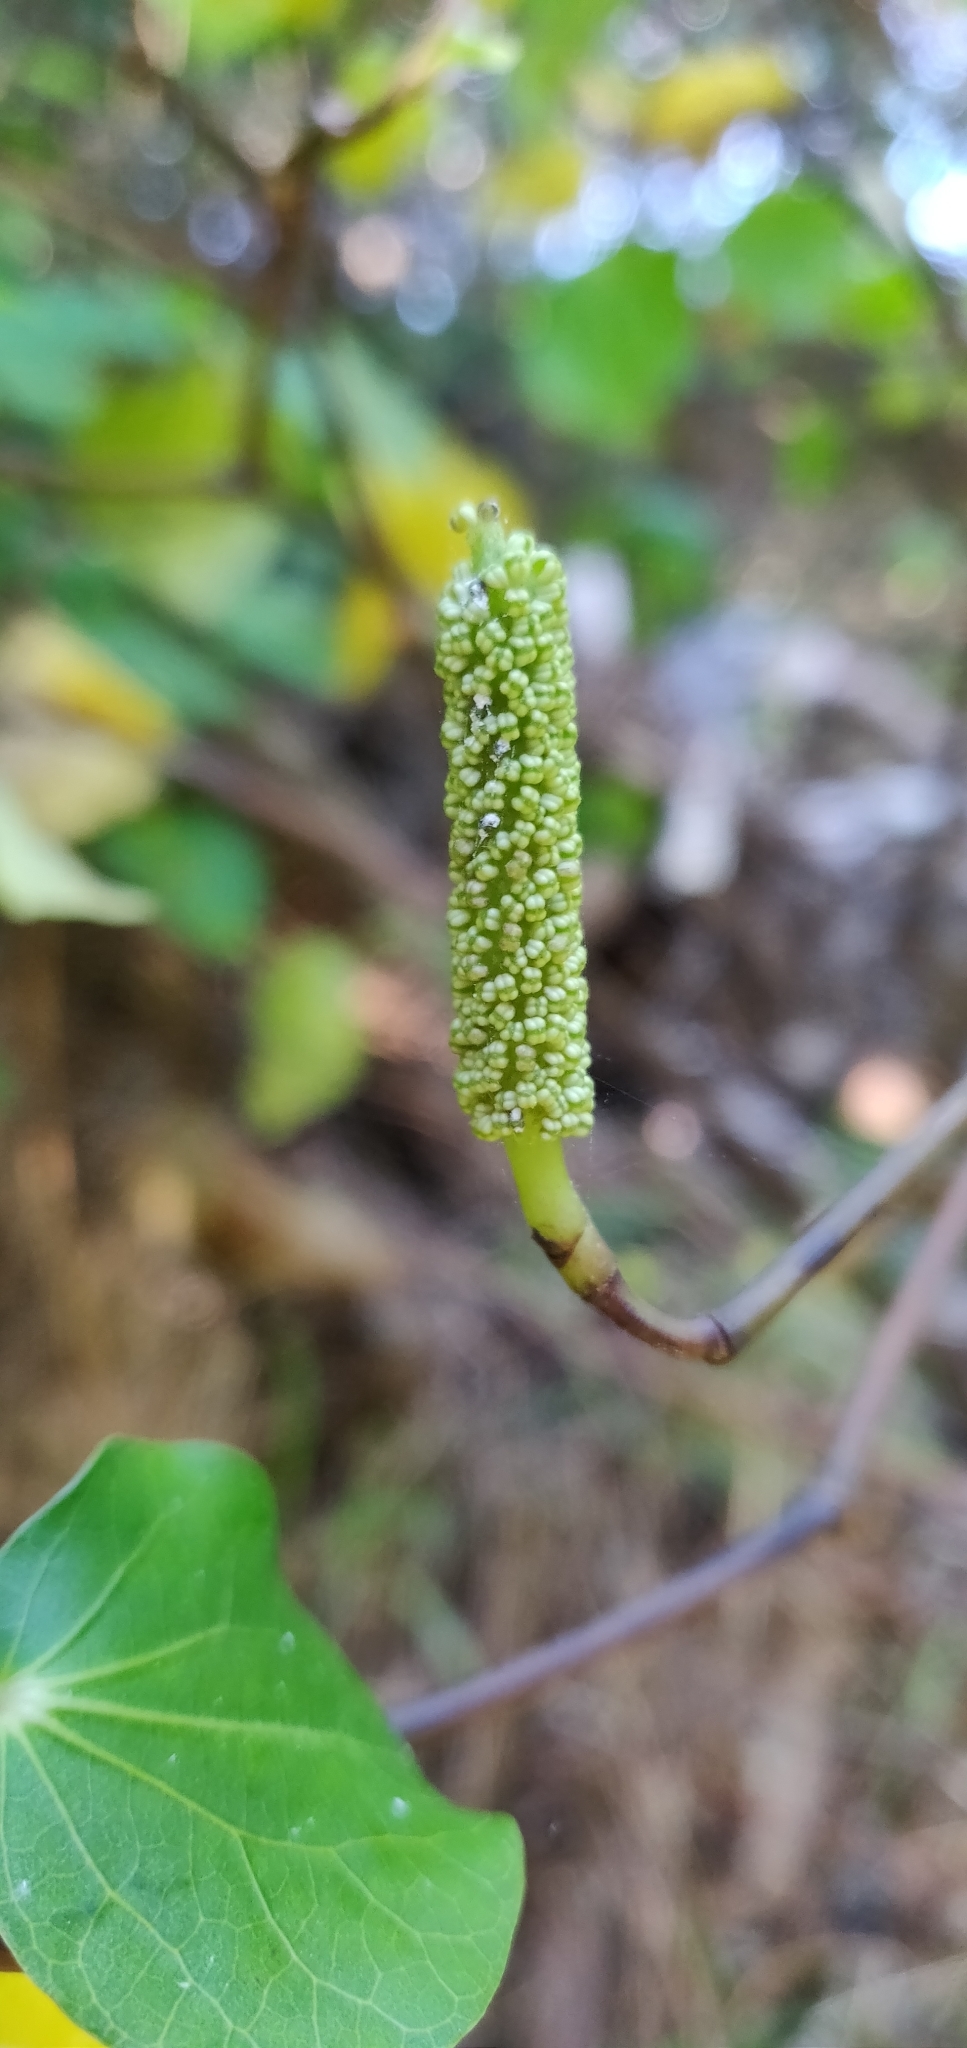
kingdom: Plantae
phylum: Tracheophyta
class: Magnoliopsida
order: Piperales
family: Piperaceae
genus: Macropiper
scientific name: Macropiper excelsum
